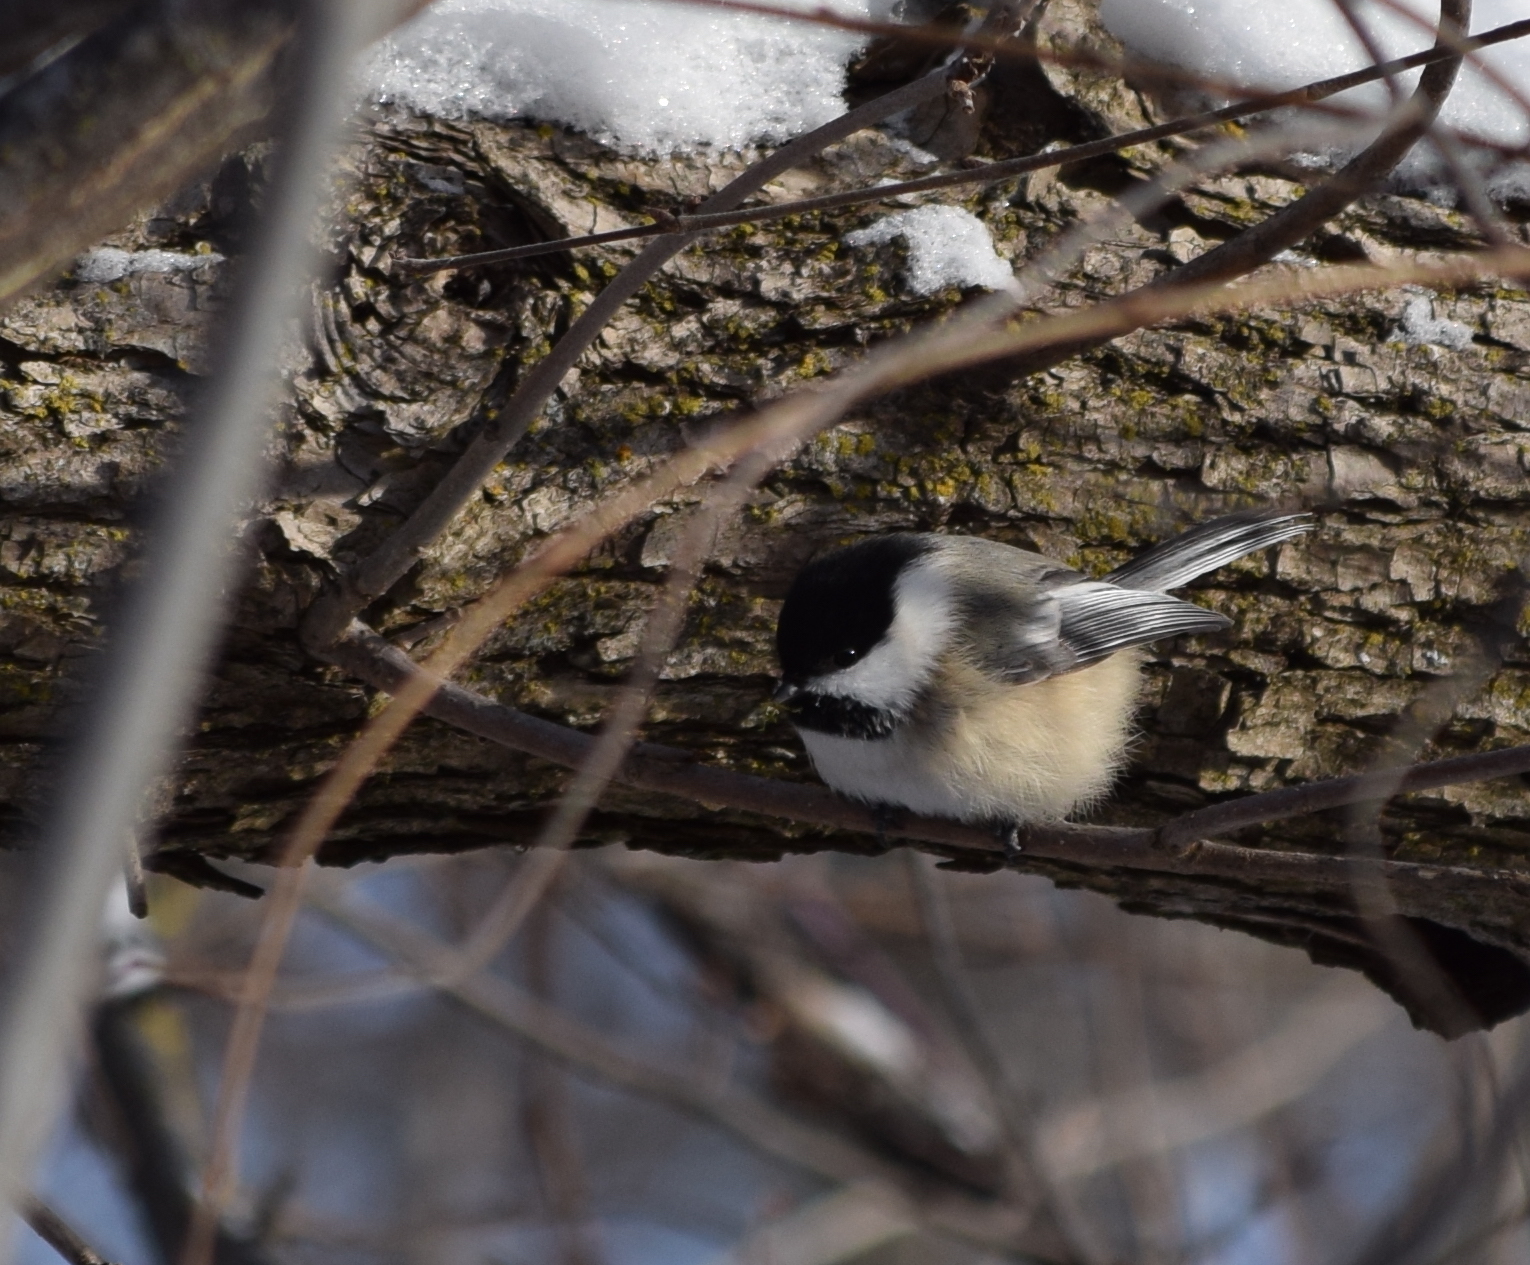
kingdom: Animalia
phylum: Chordata
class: Aves
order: Passeriformes
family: Paridae
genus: Poecile
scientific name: Poecile atricapillus
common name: Black-capped chickadee
